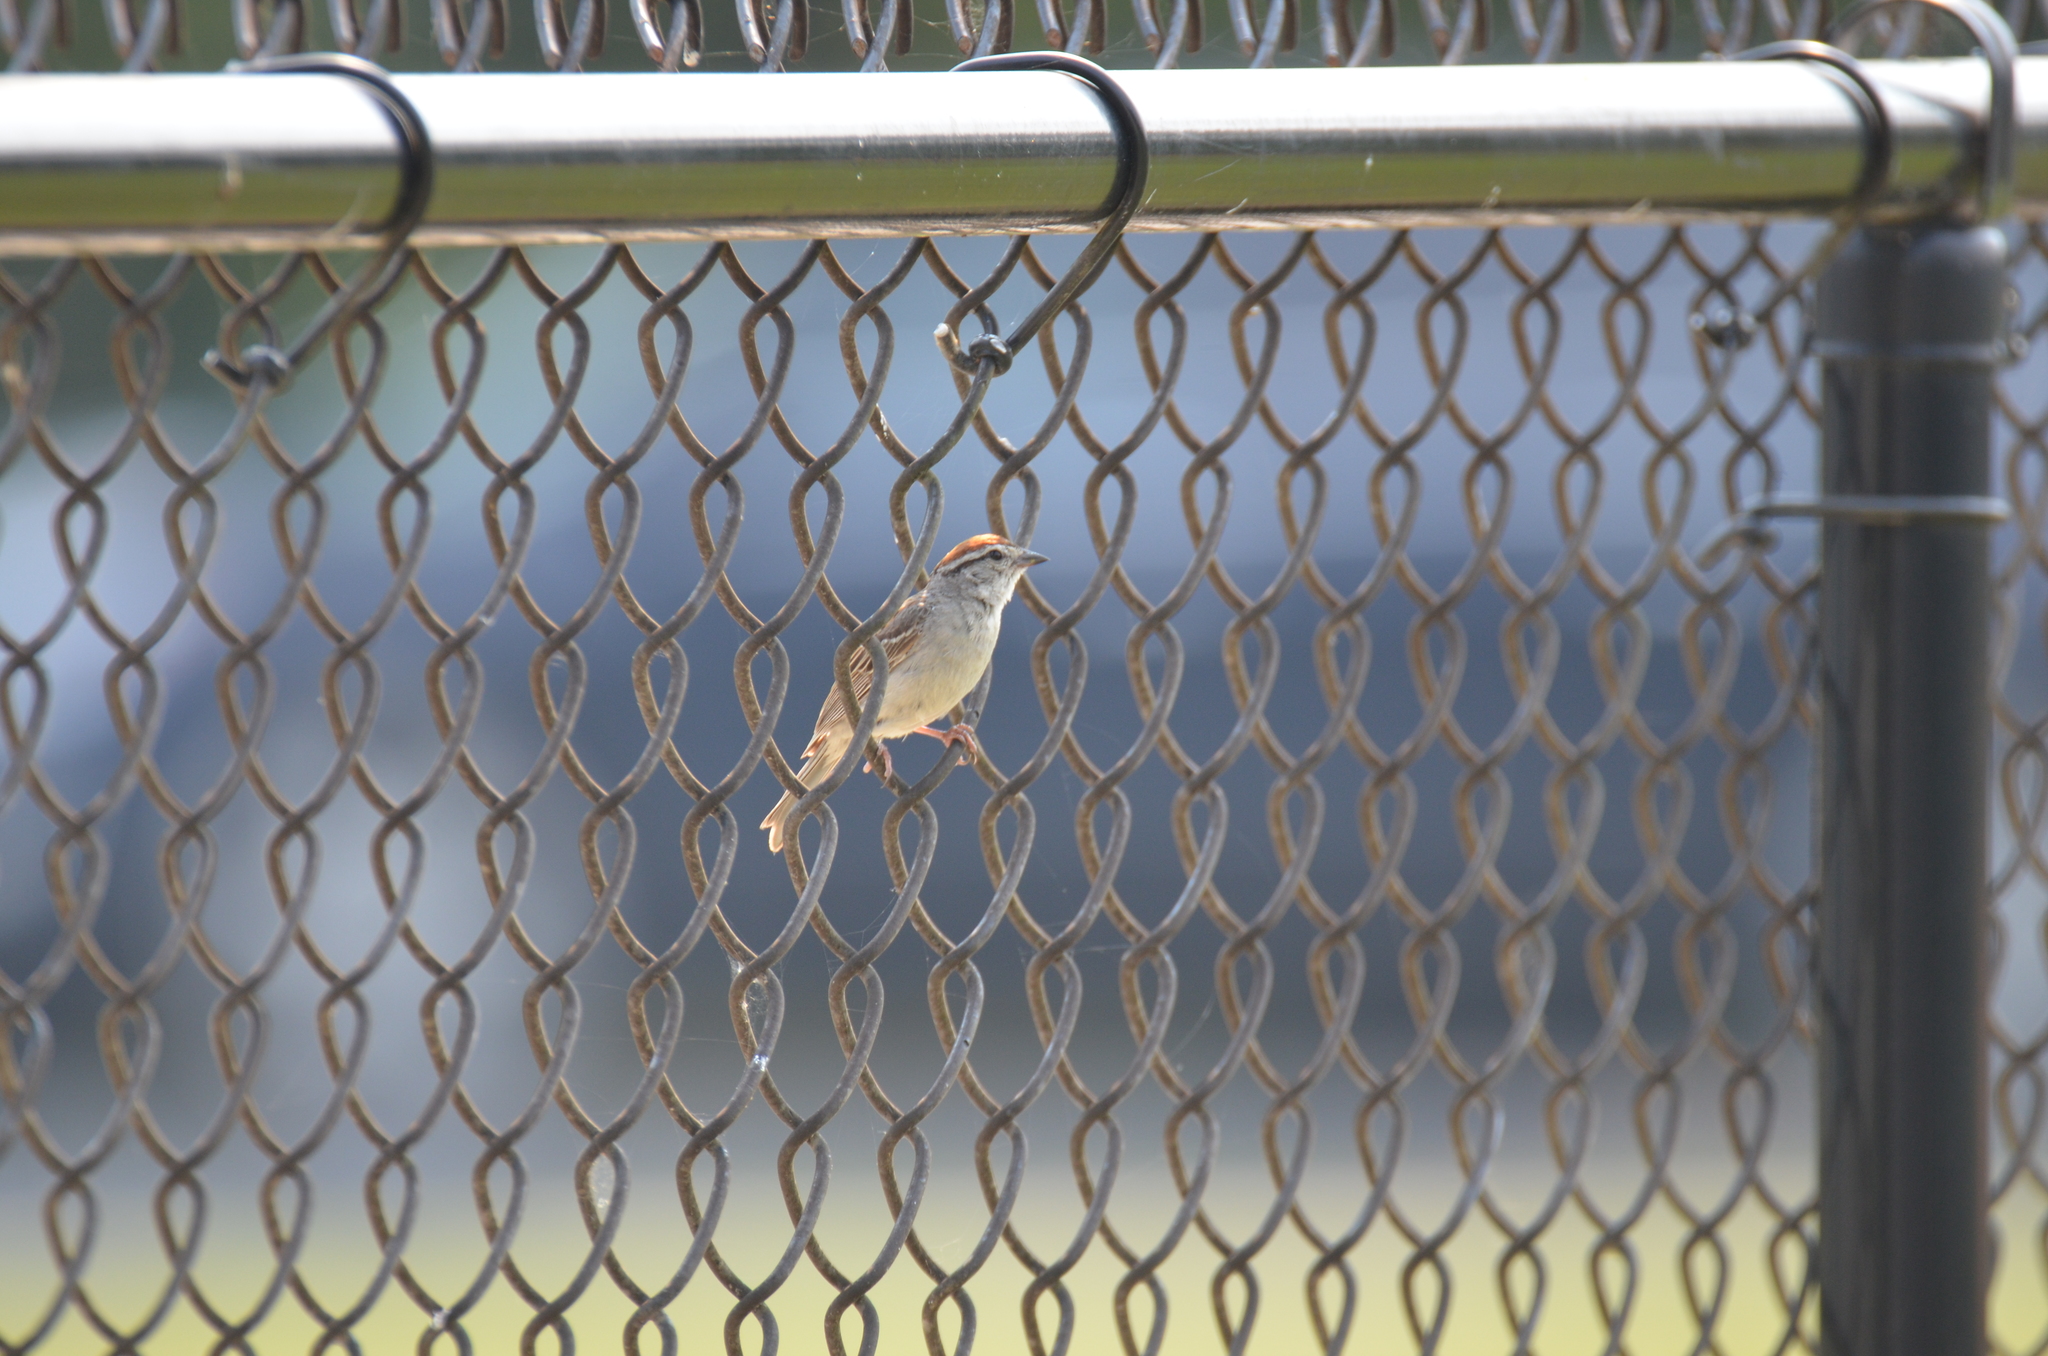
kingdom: Animalia
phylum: Chordata
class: Aves
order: Passeriformes
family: Passerellidae
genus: Spizella
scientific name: Spizella passerina
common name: Chipping sparrow
